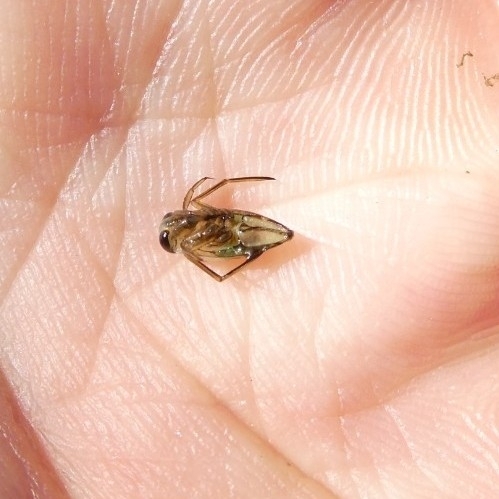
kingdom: Animalia
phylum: Arthropoda
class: Insecta
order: Hemiptera
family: Notonectidae
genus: Notonecta
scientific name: Notonecta
